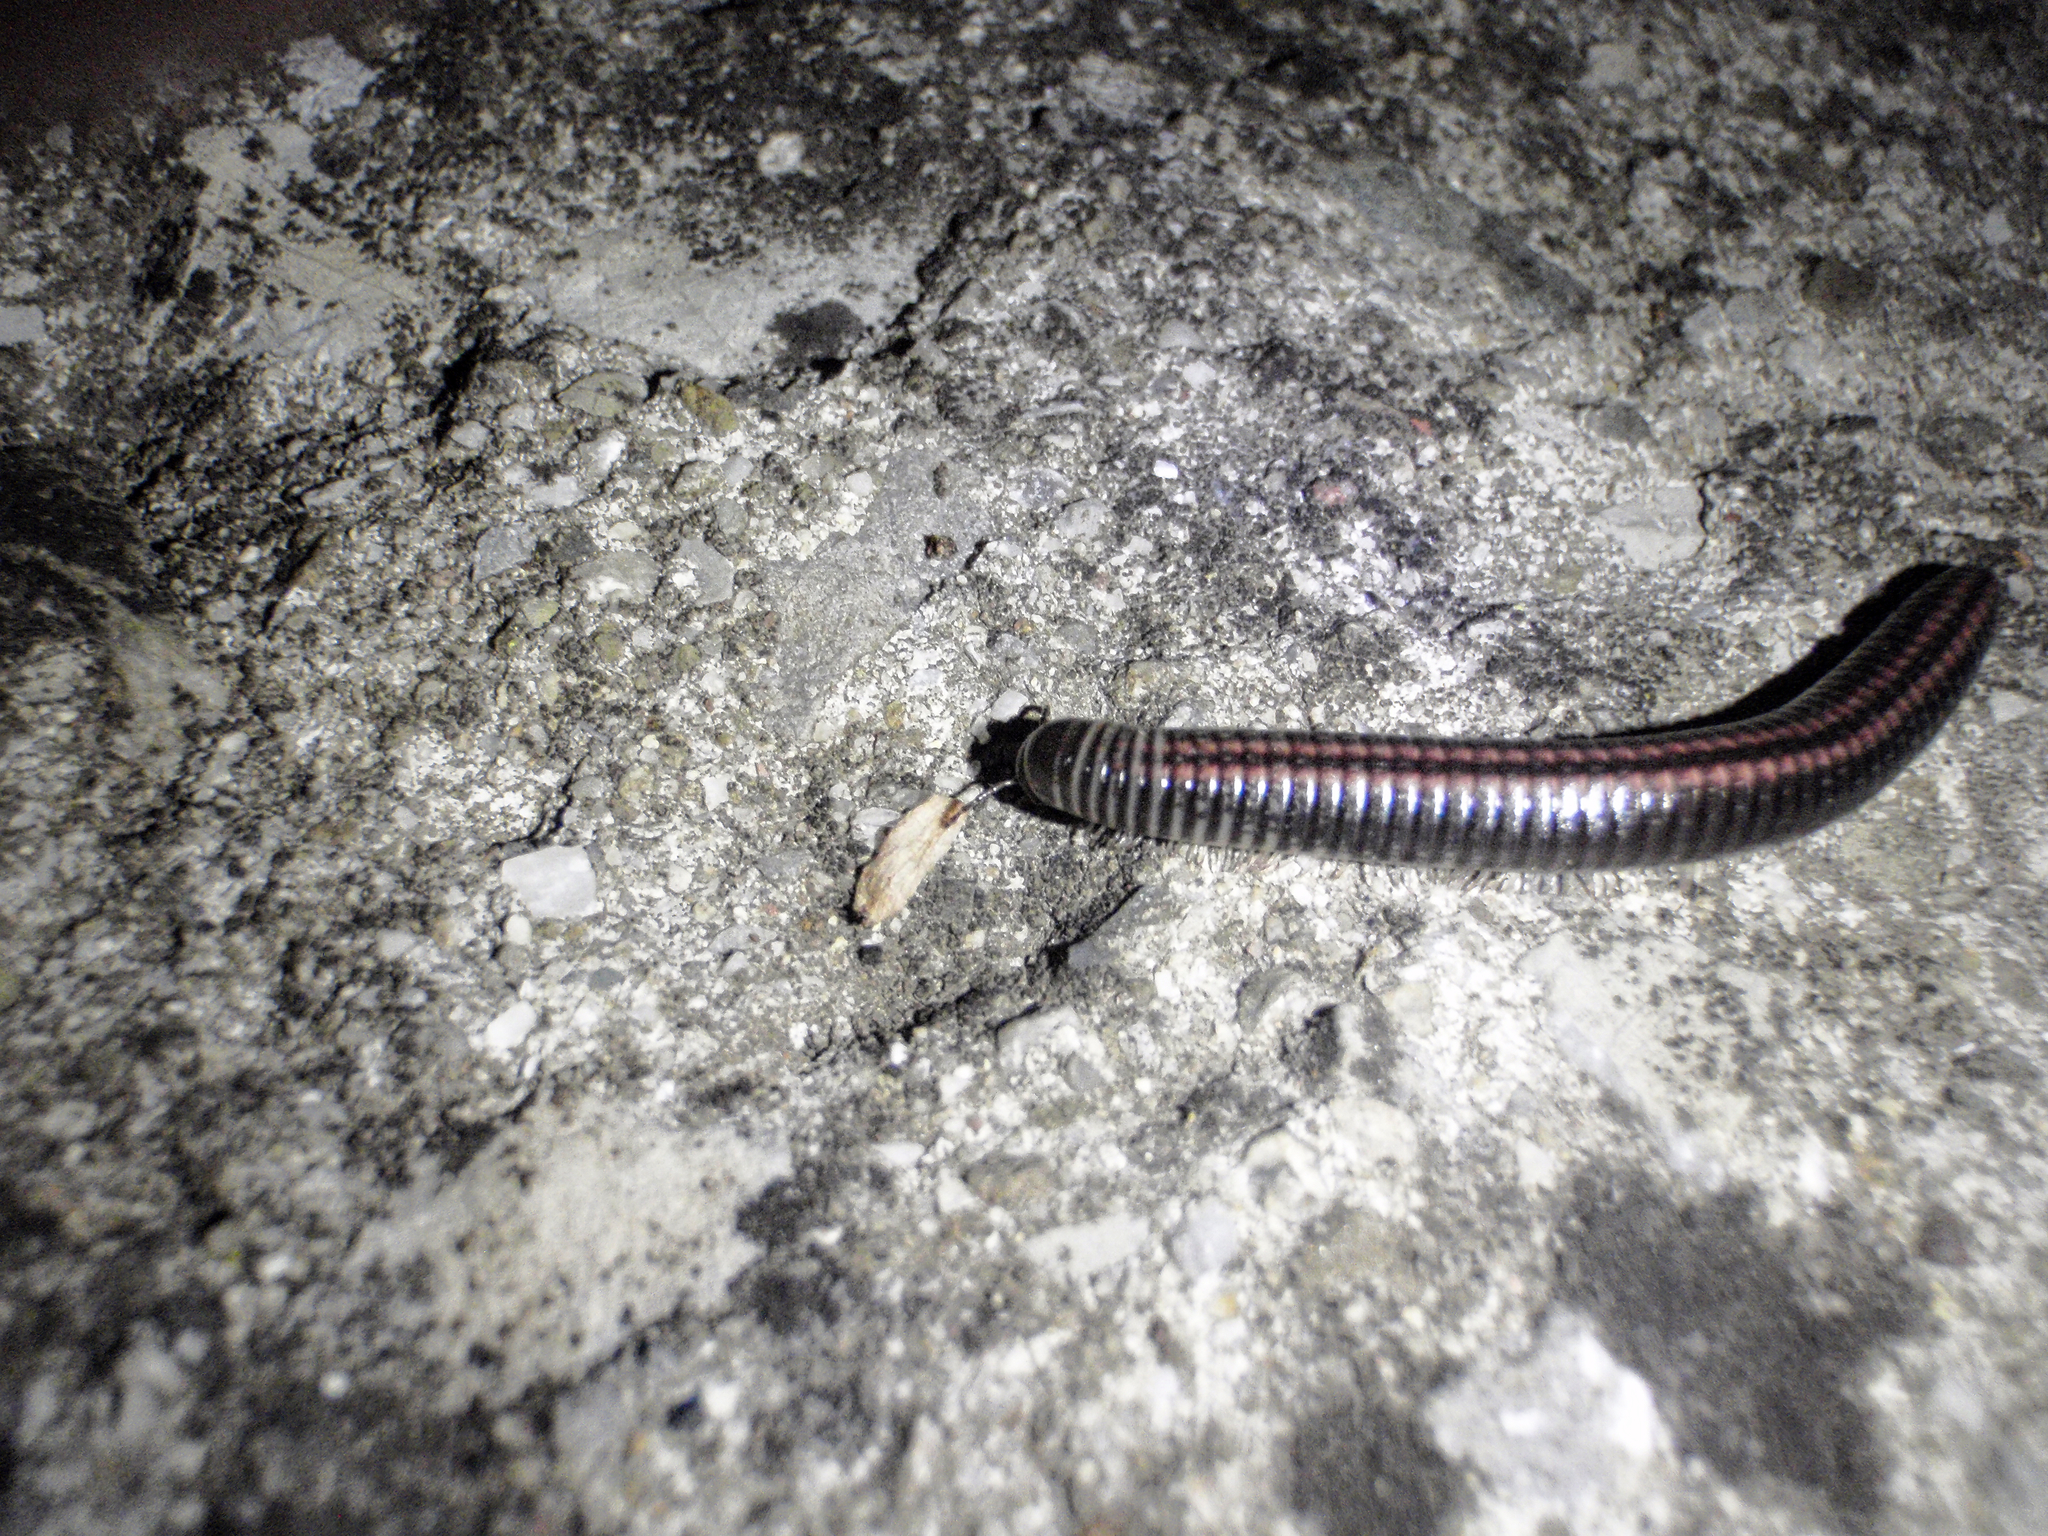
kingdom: Animalia
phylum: Arthropoda
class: Diplopoda
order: Julida
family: Julidae
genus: Ommatoiulus
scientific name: Ommatoiulus sabulosus
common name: Striped millipede
